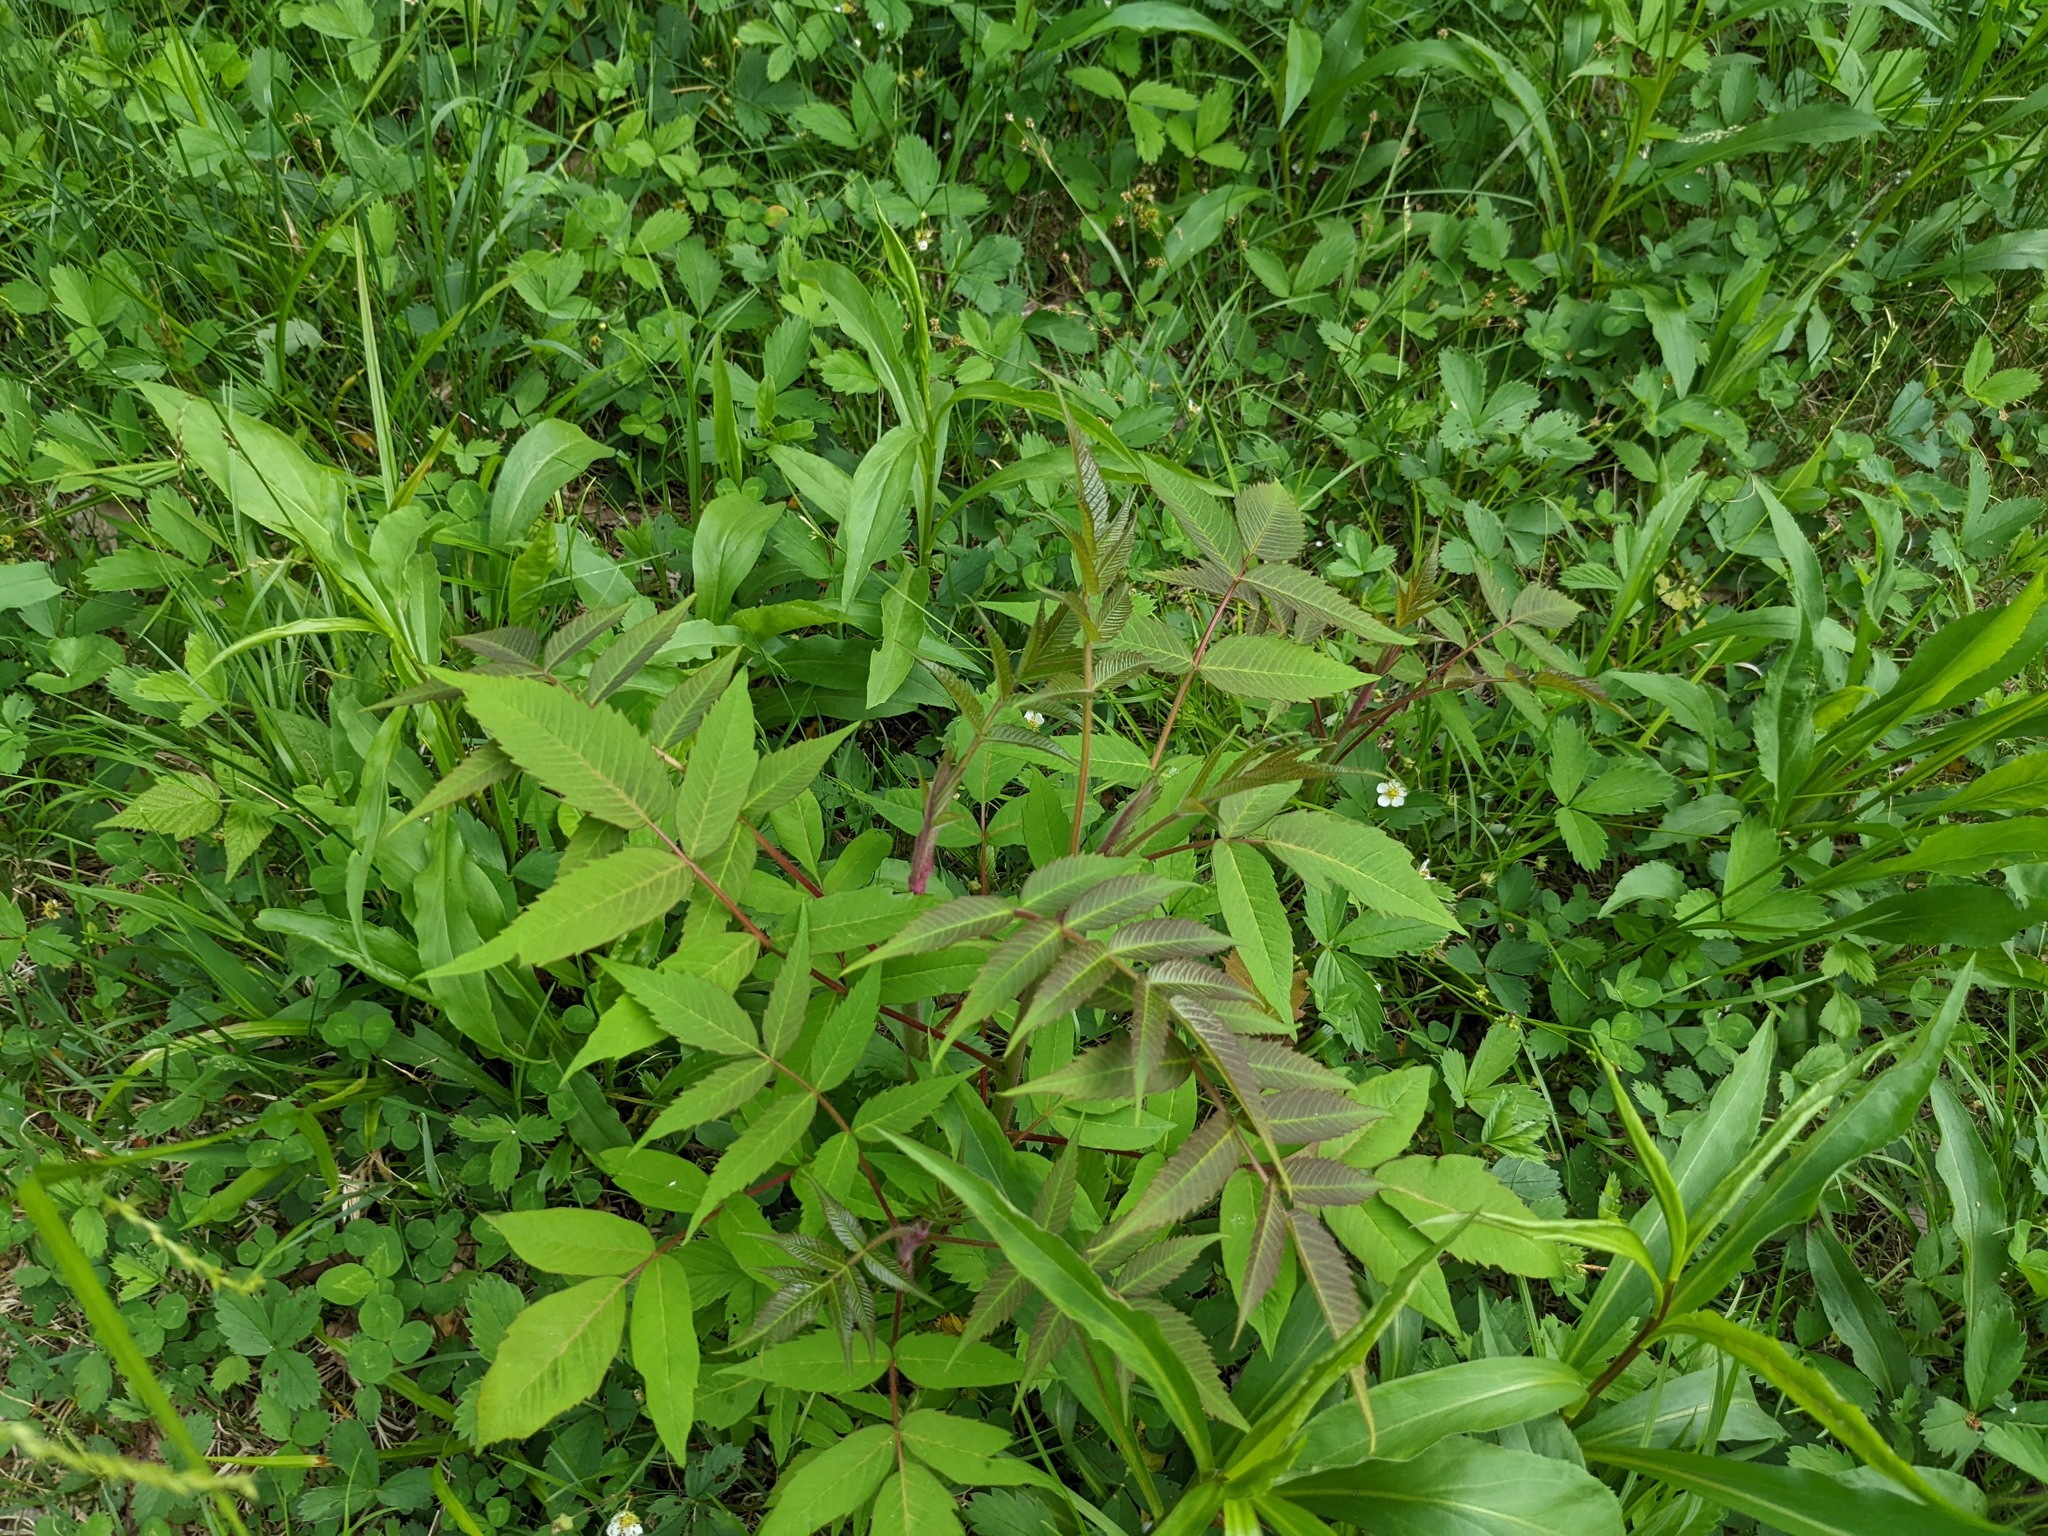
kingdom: Plantae
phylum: Tracheophyta
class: Magnoliopsida
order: Sapindales
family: Anacardiaceae
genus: Rhus
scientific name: Rhus glabra
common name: Scarlet sumac
